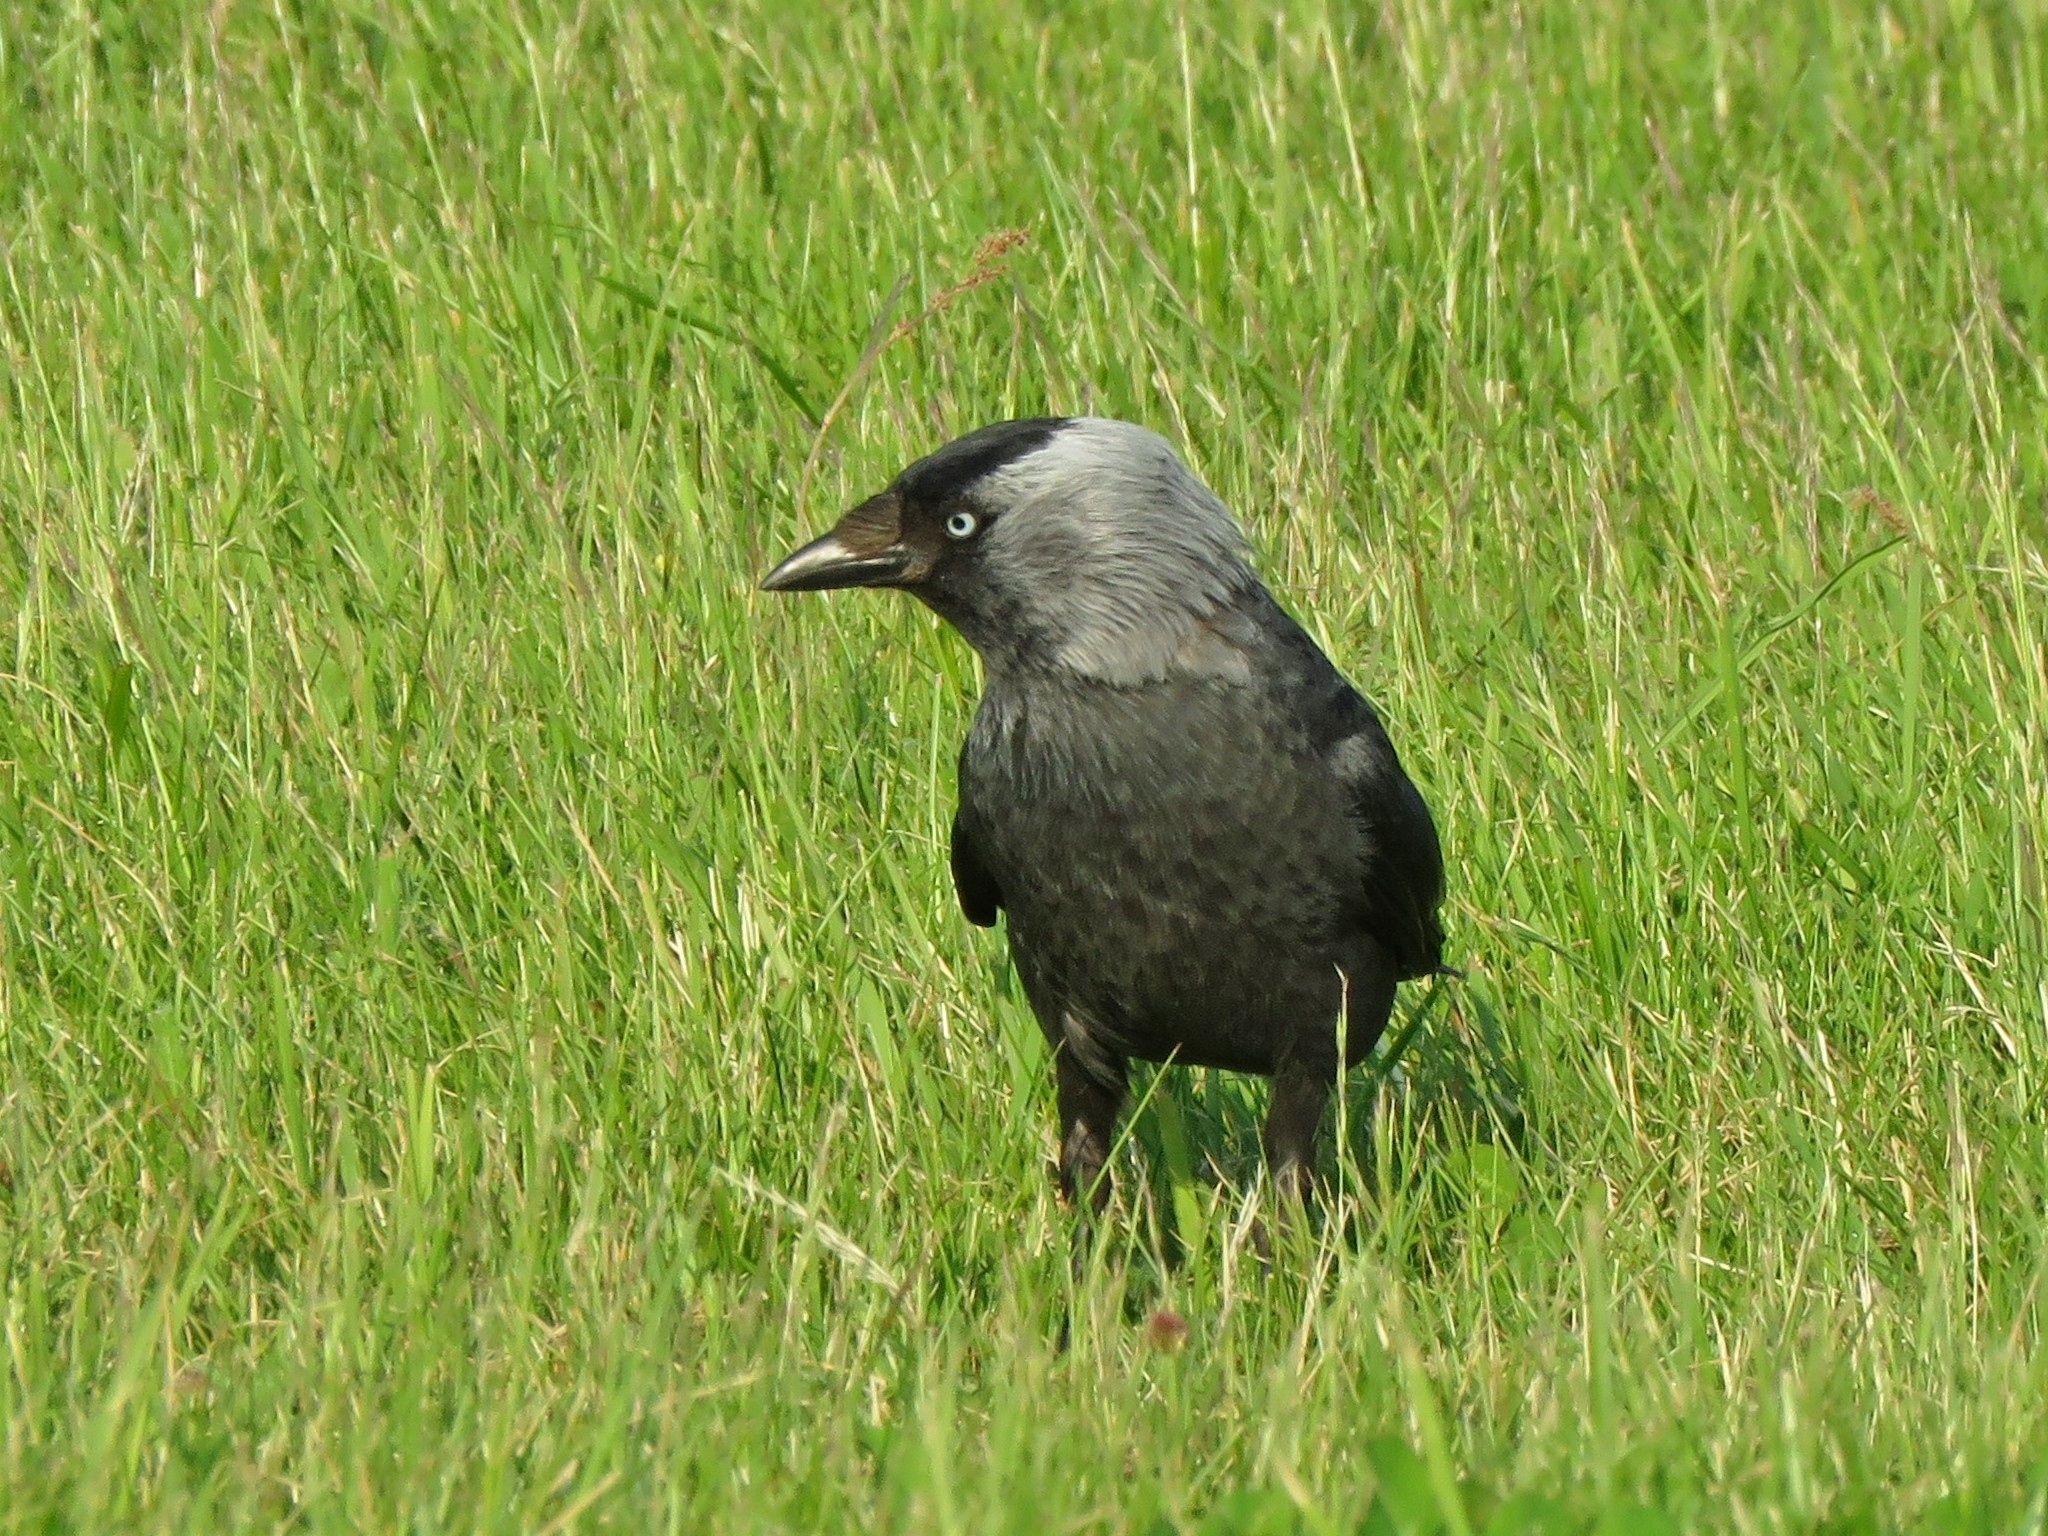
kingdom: Animalia
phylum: Chordata
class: Aves
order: Passeriformes
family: Corvidae
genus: Coloeus
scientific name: Coloeus monedula
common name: Western jackdaw
